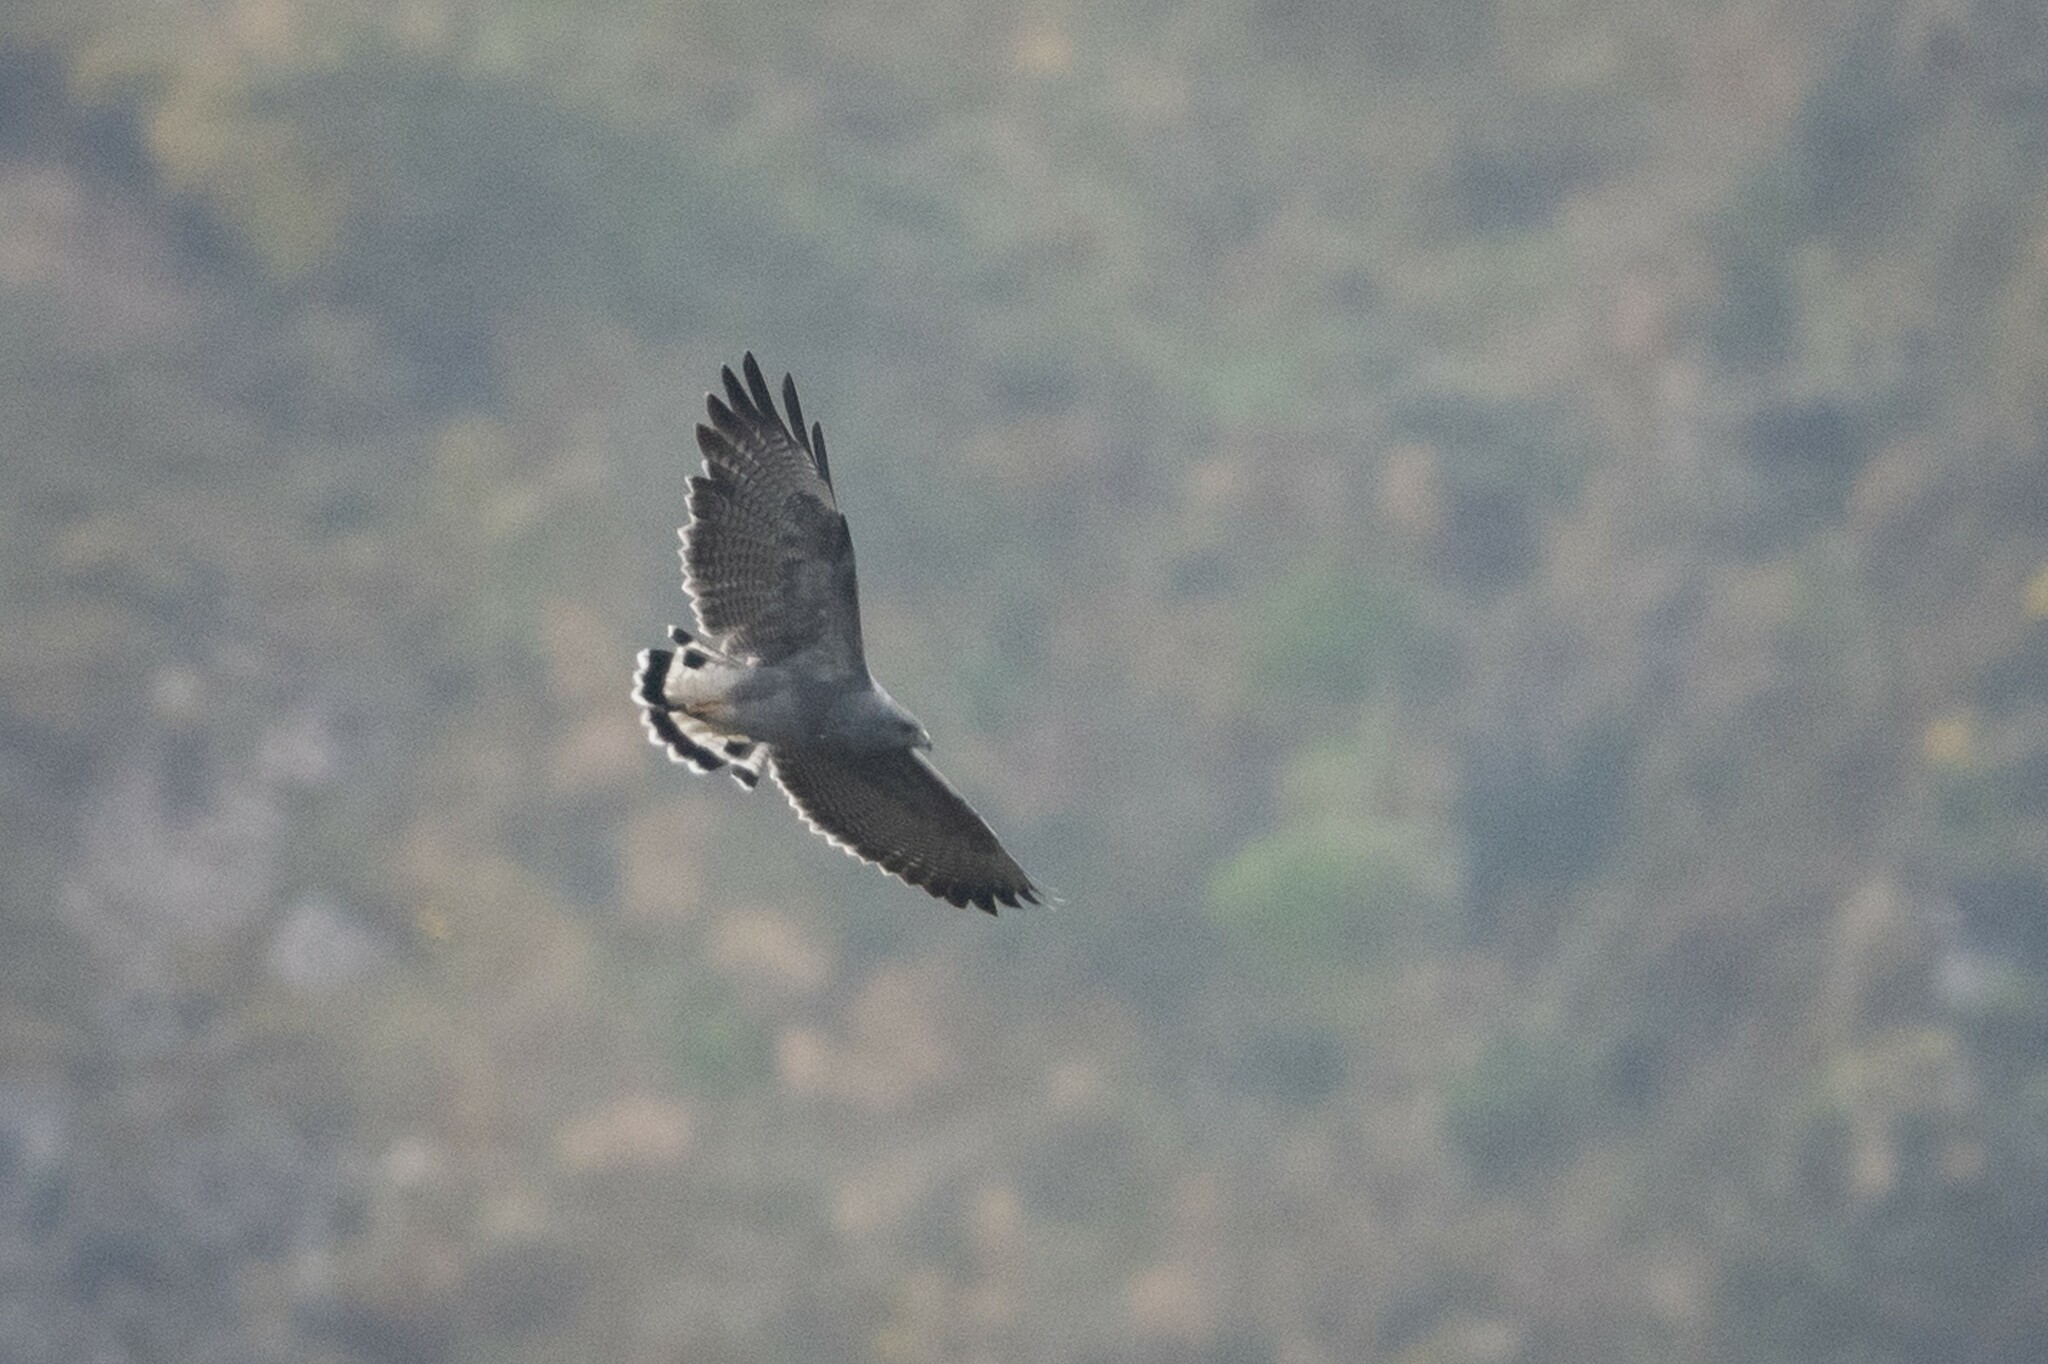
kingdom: Animalia
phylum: Chordata
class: Aves
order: Accipitriformes
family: Accipitridae
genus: Buteo
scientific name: Buteo polyosoma
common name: Variable hawk
